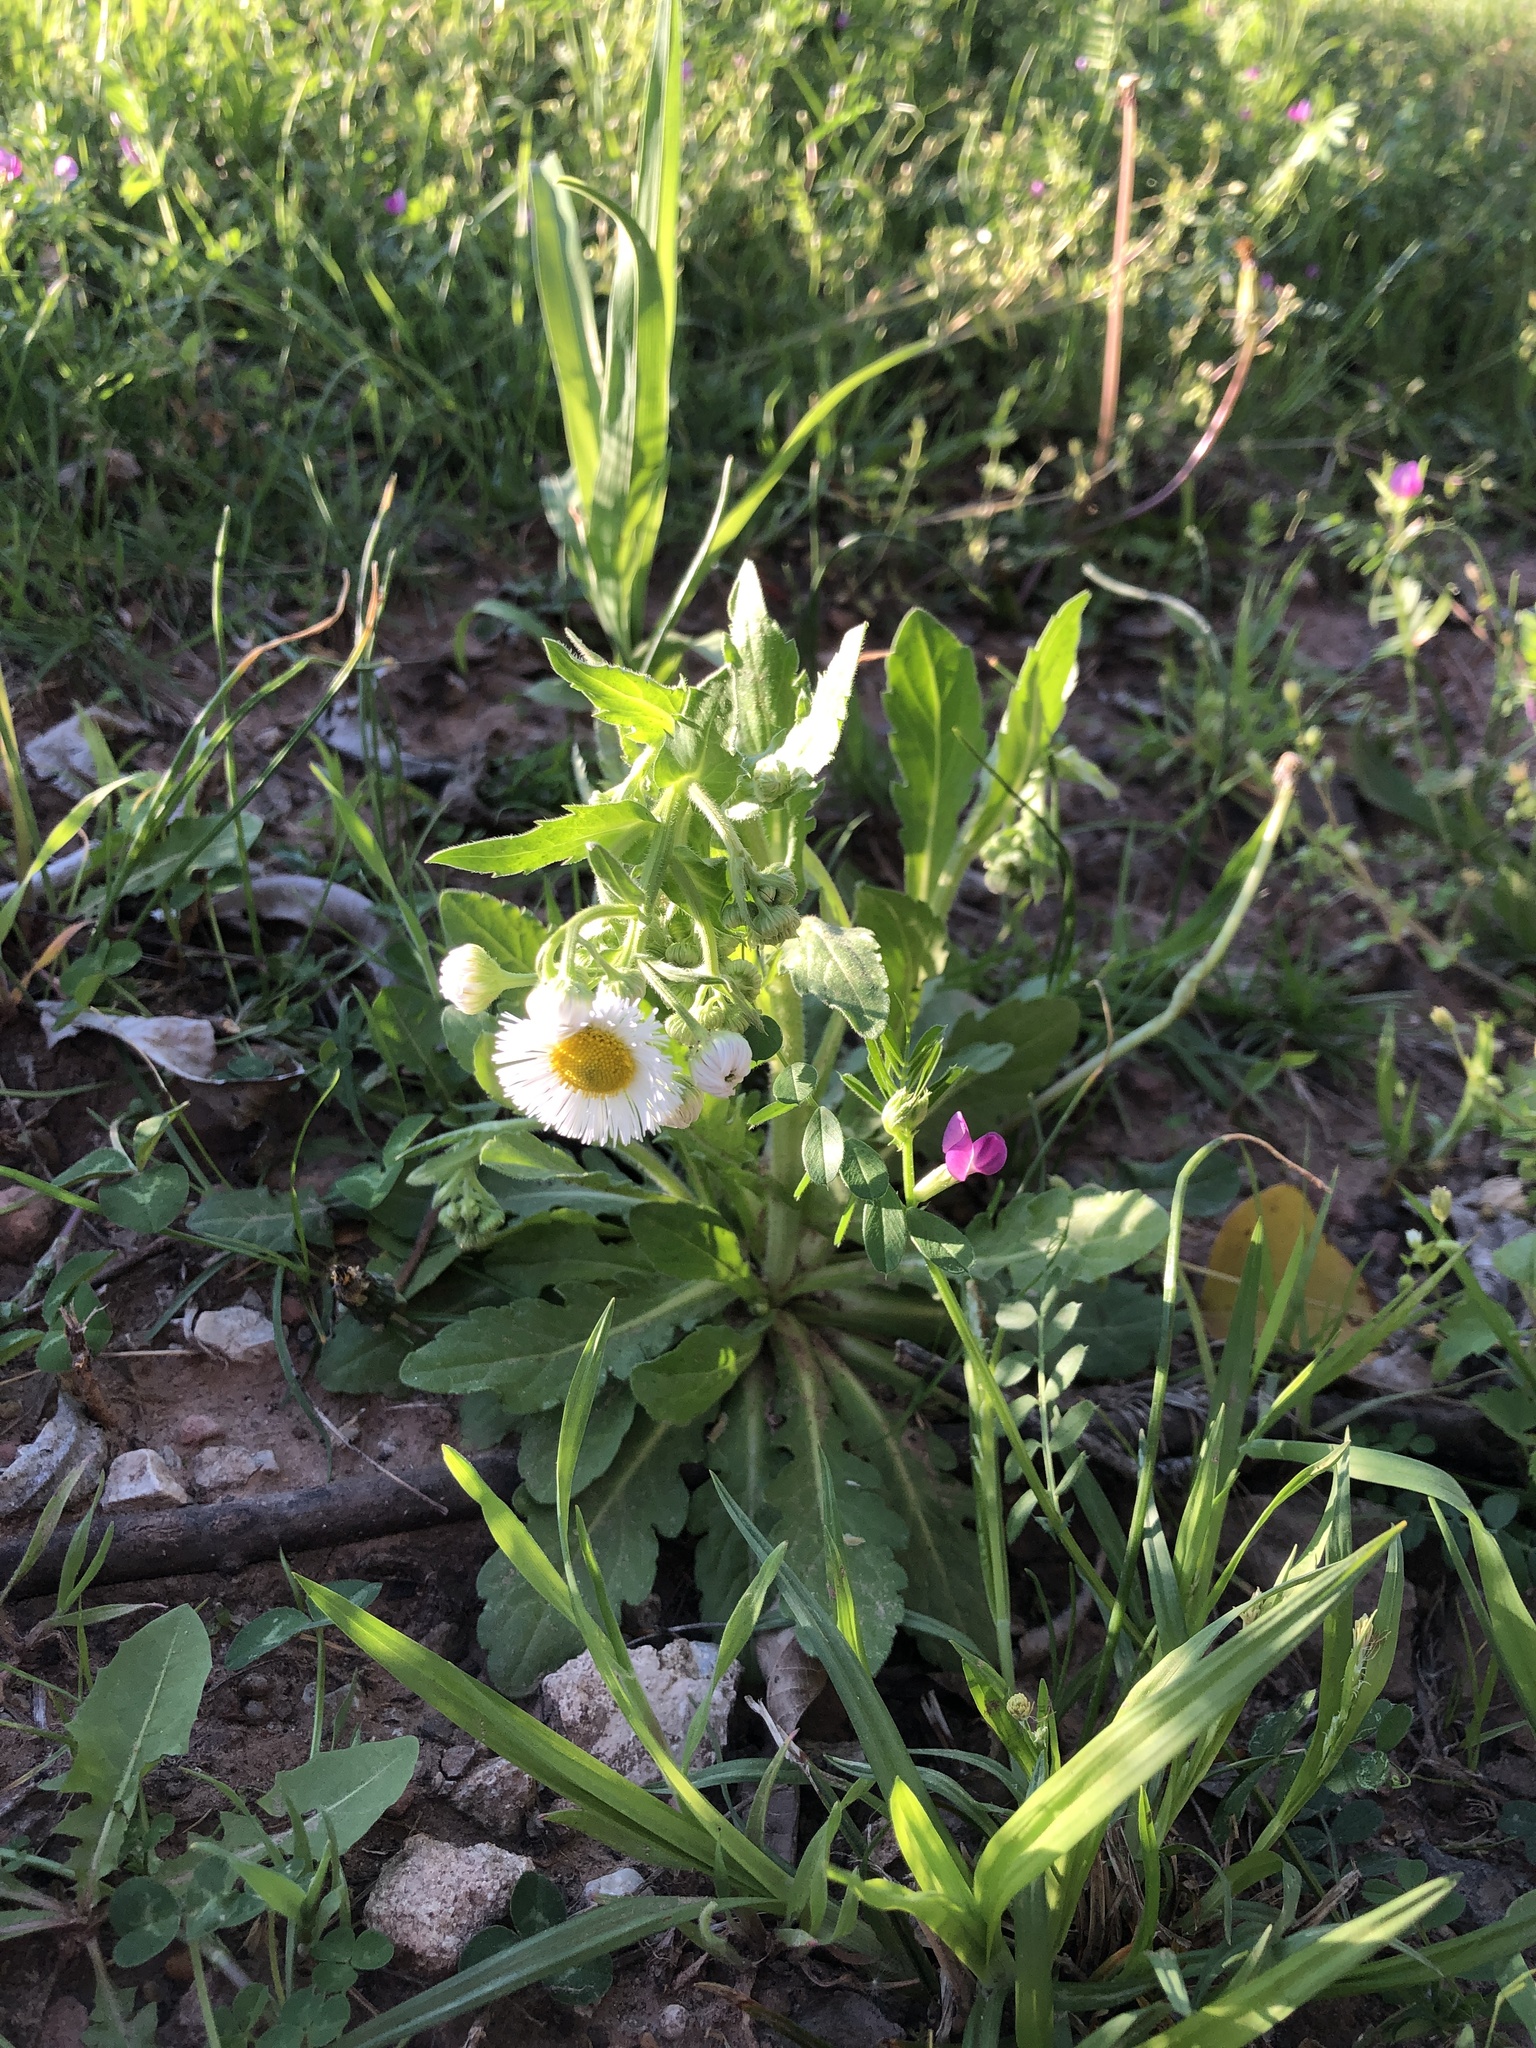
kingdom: Plantae
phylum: Tracheophyta
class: Magnoliopsida
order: Asterales
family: Asteraceae
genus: Erigeron
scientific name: Erigeron philadelphicus
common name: Robin's-plantain
